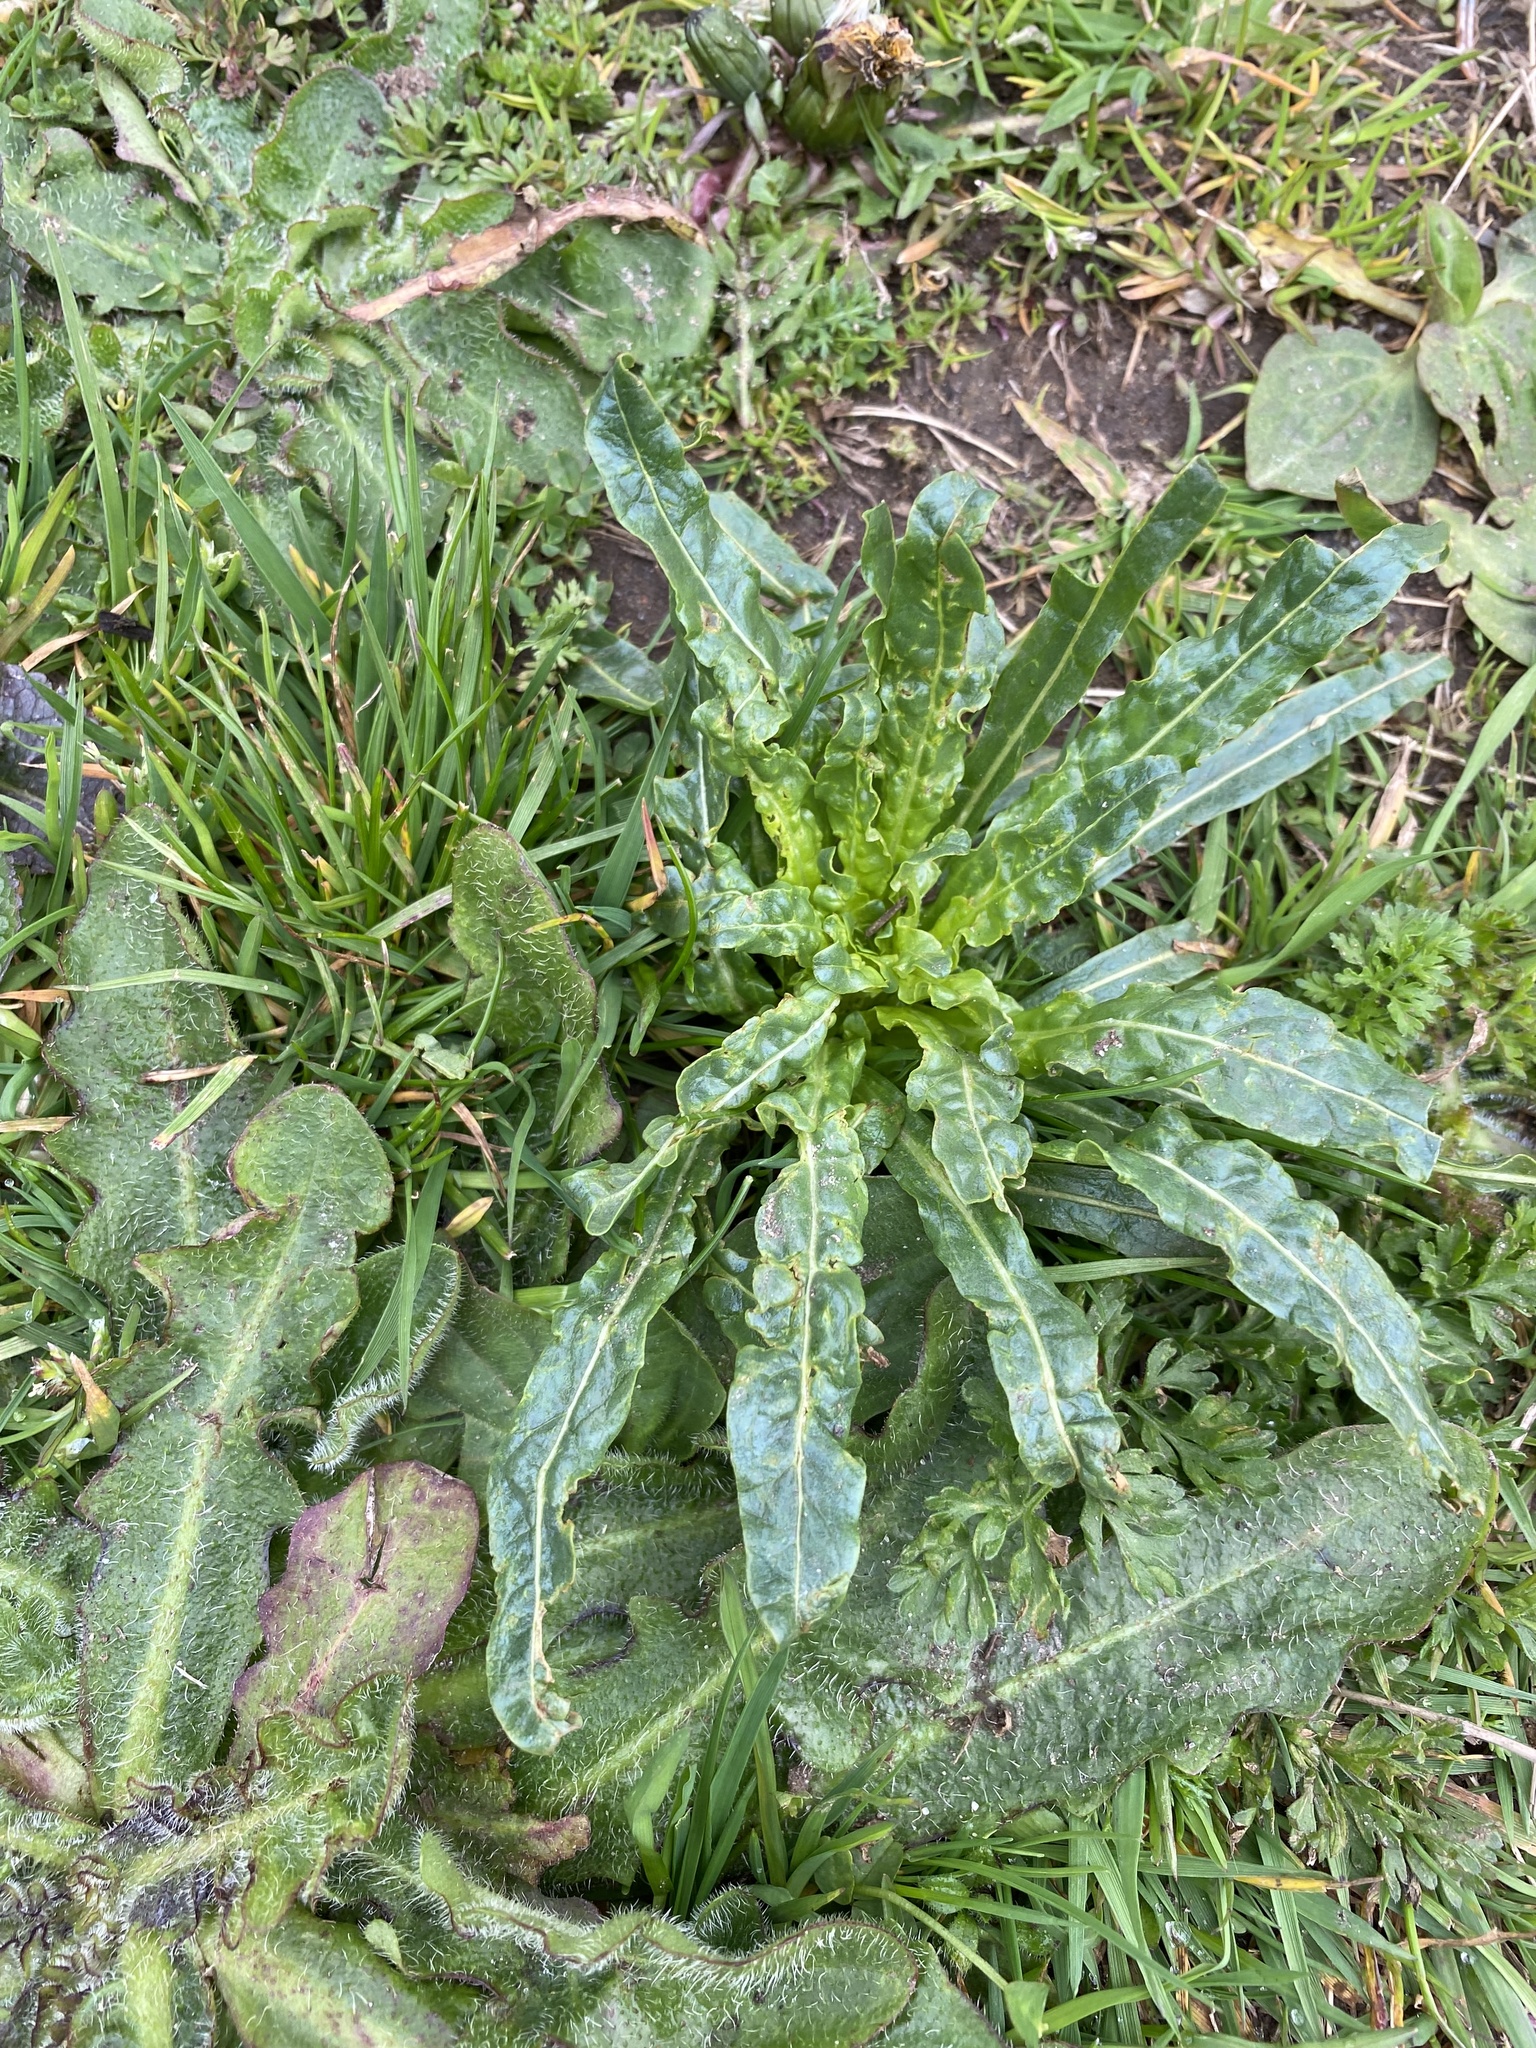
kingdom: Plantae
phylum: Tracheophyta
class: Magnoliopsida
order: Brassicales
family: Resedaceae
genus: Reseda
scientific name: Reseda luteola
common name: Weld
